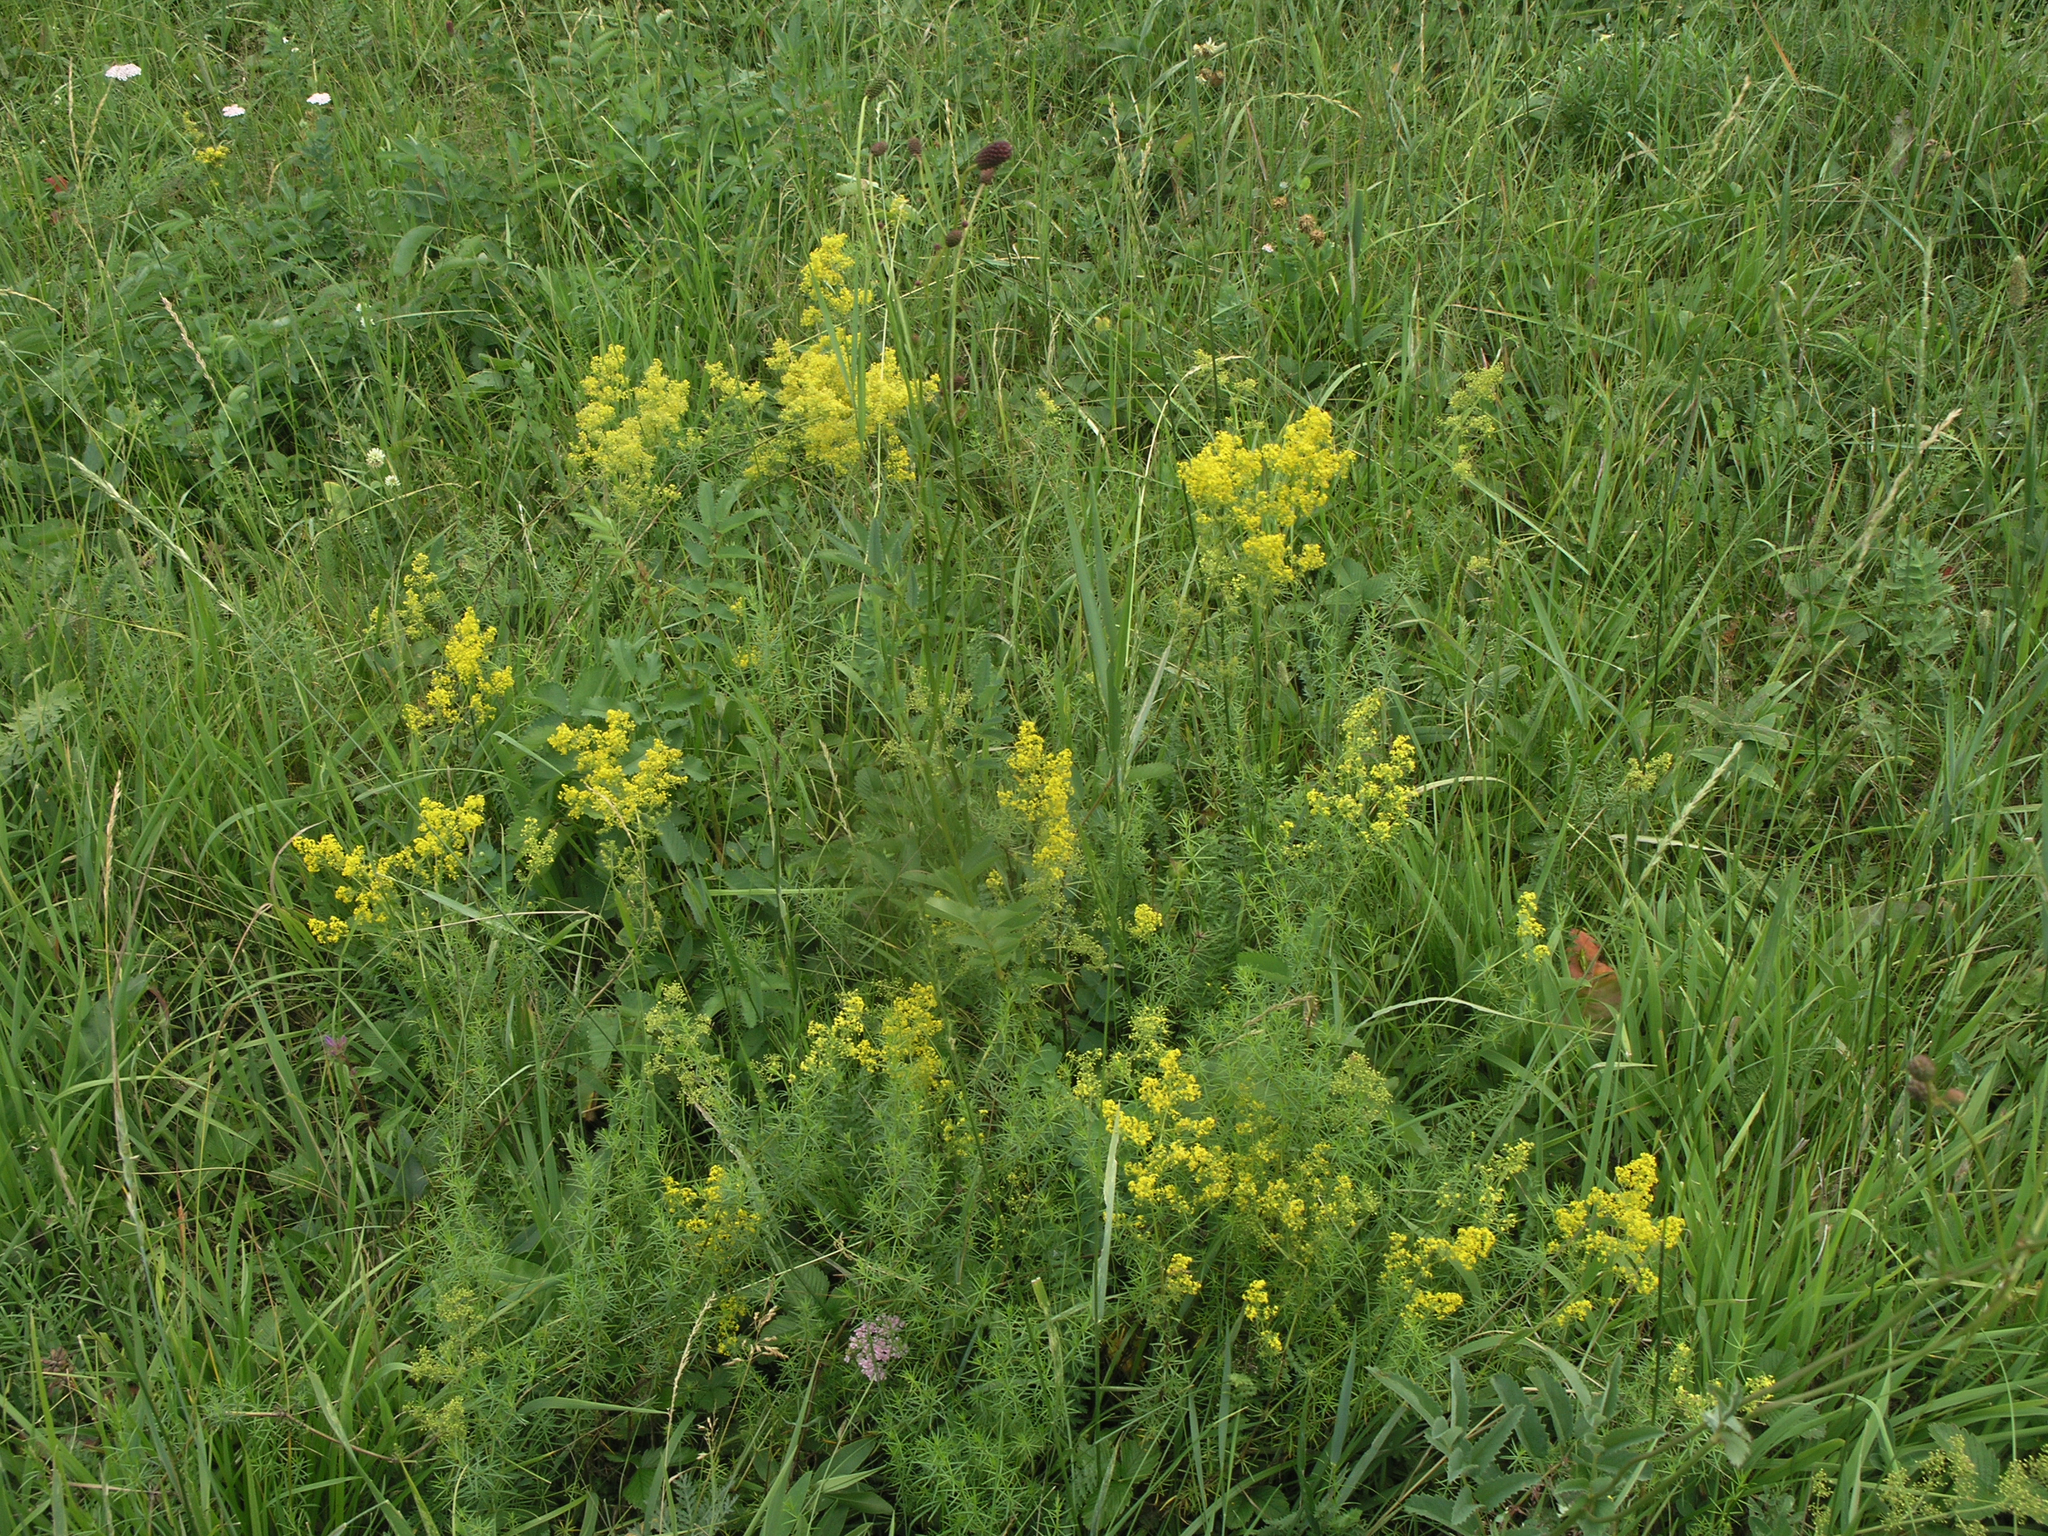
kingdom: Plantae
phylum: Tracheophyta
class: Magnoliopsida
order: Gentianales
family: Rubiaceae
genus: Galium
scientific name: Galium verum
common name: Lady's bedstraw
